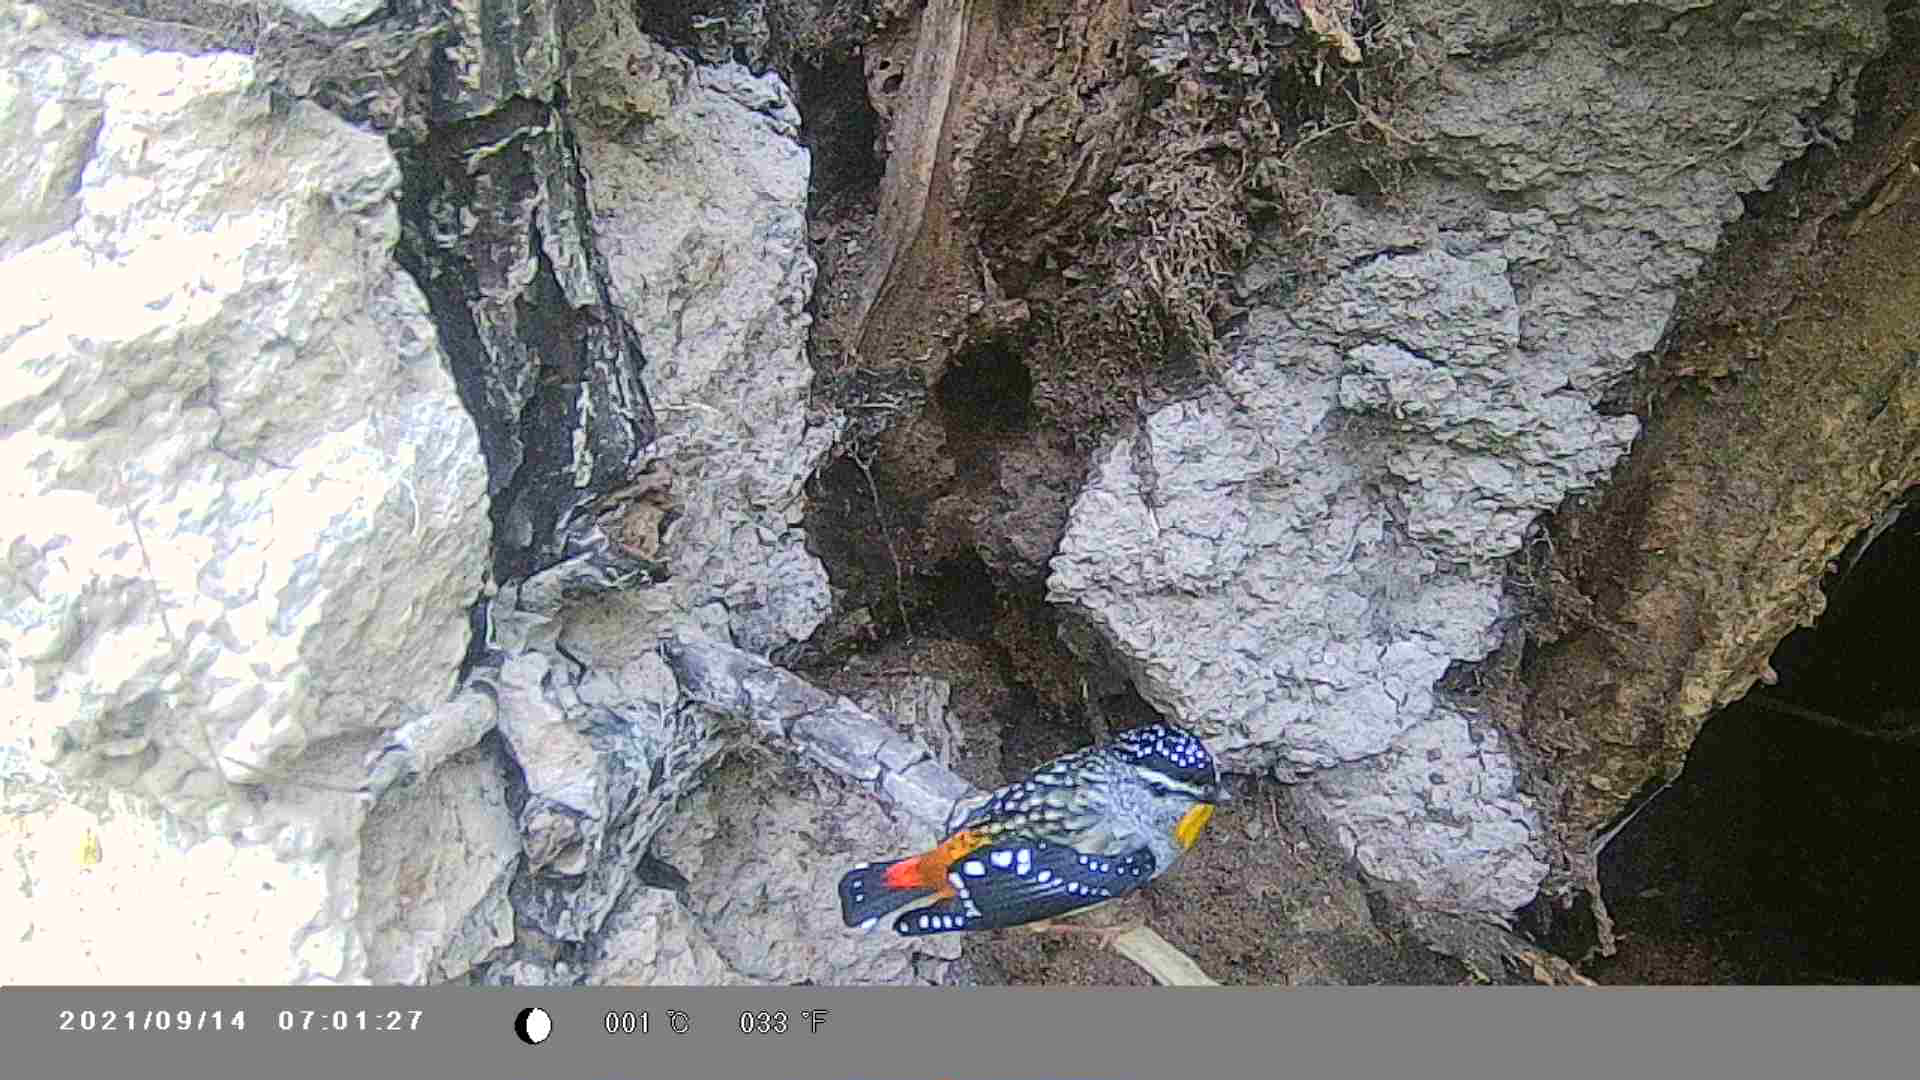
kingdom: Animalia
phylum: Chordata
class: Aves
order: Passeriformes
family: Pardalotidae
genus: Pardalotus
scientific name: Pardalotus punctatus
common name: Spotted pardalote
